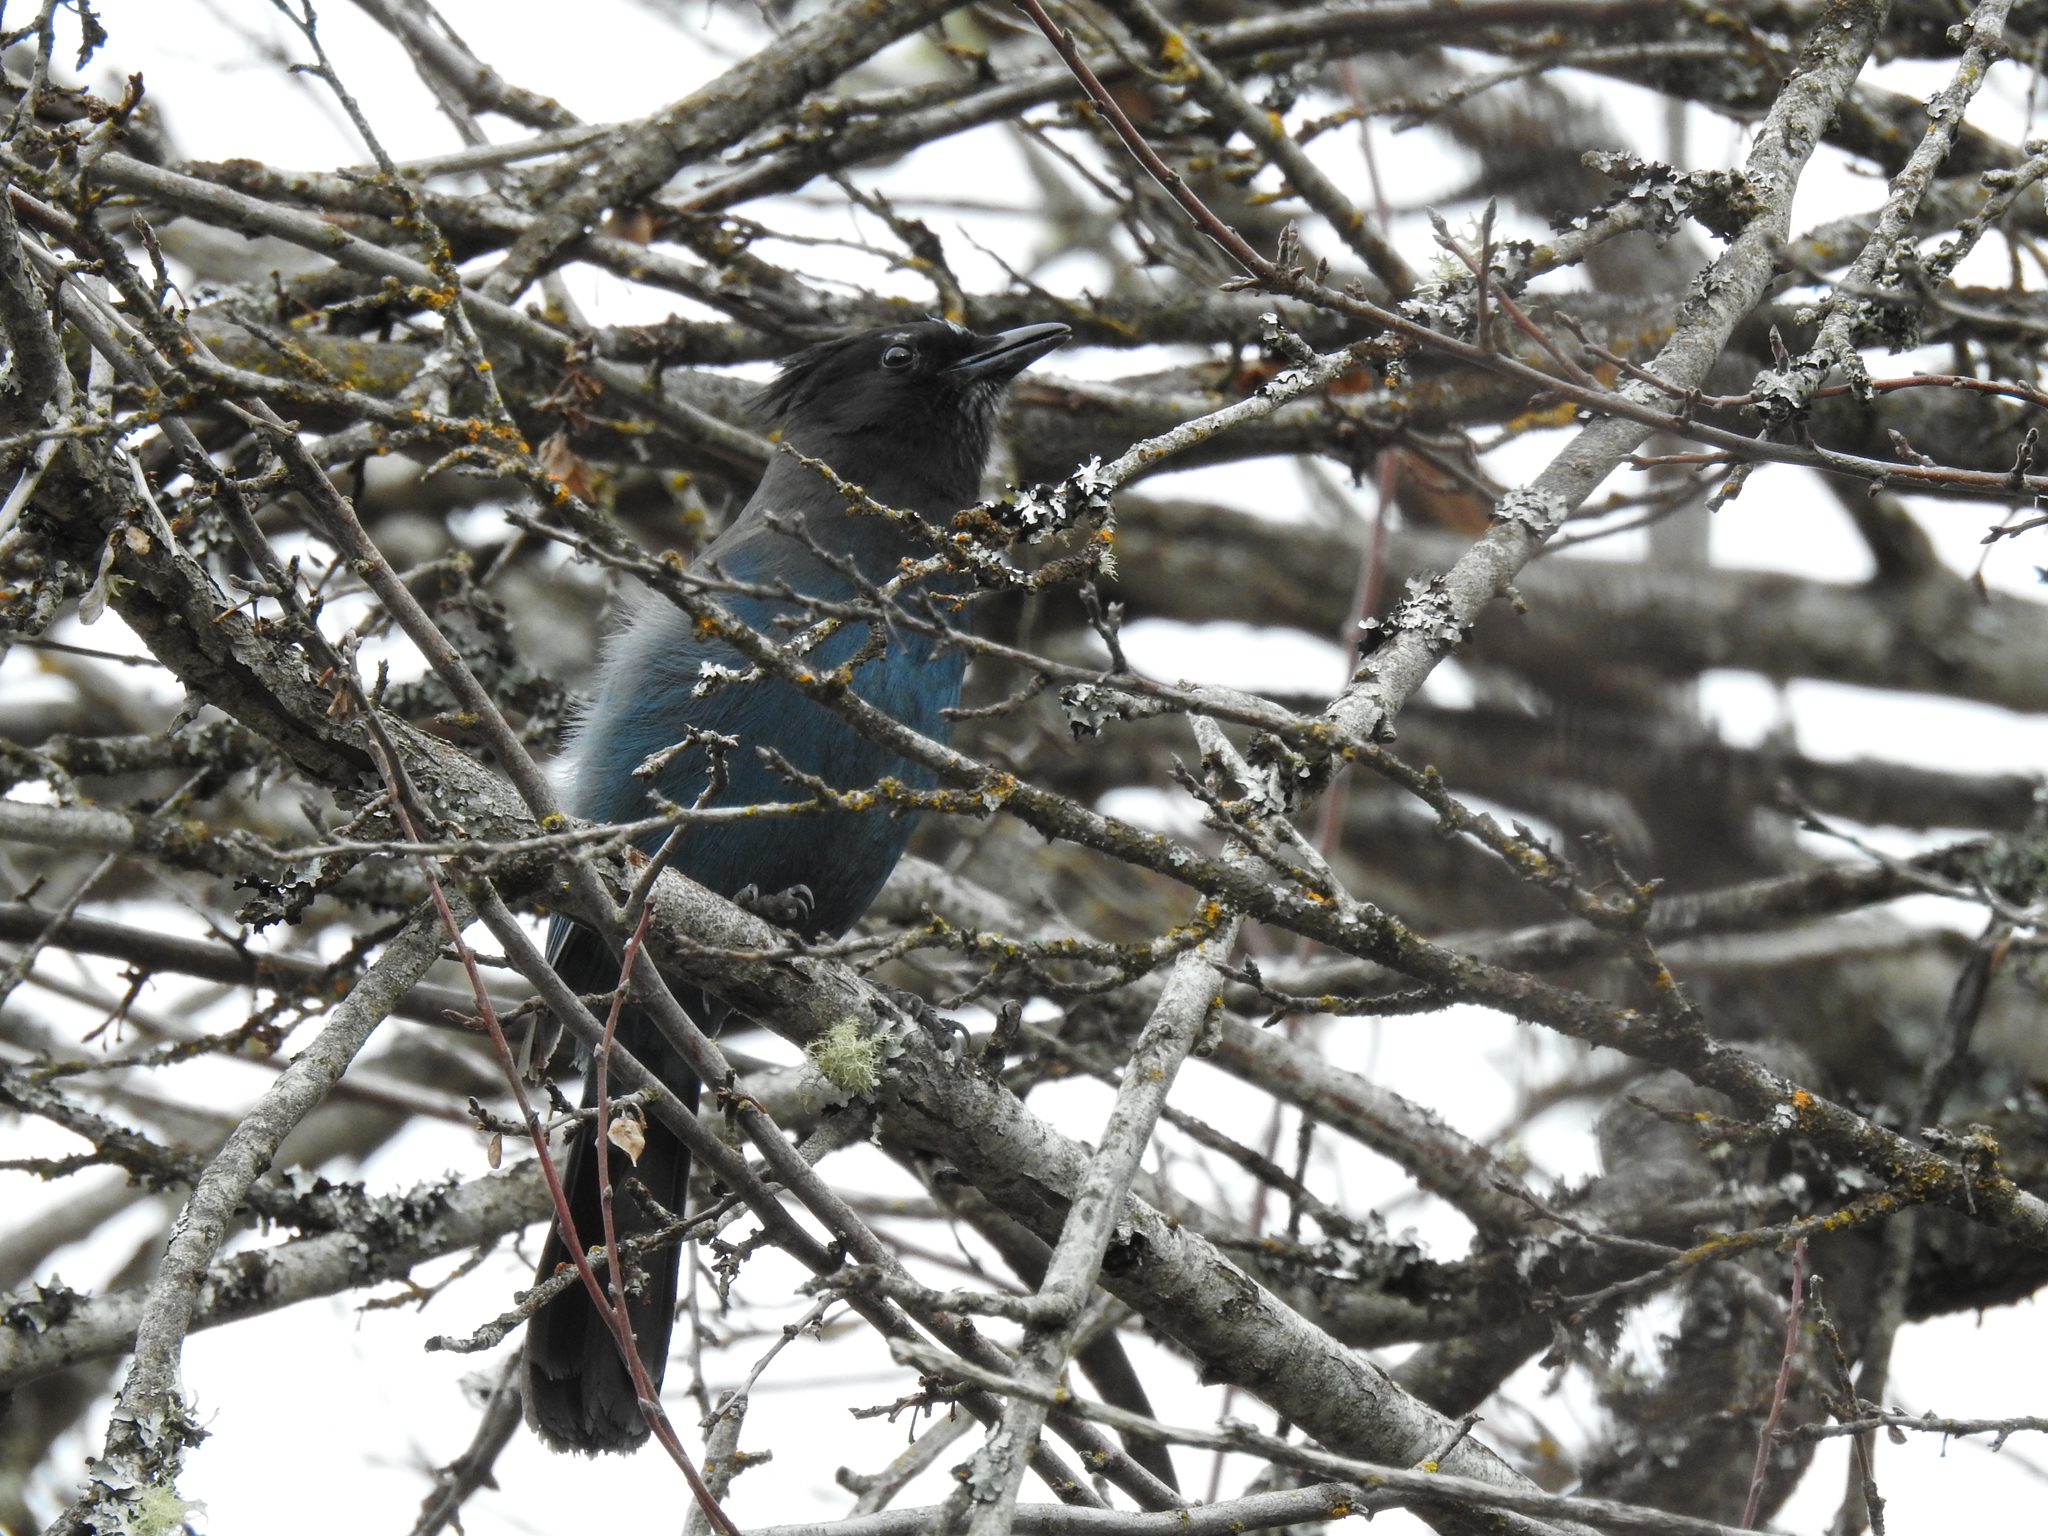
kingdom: Animalia
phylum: Chordata
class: Aves
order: Passeriformes
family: Corvidae
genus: Cyanocitta
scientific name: Cyanocitta stelleri
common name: Steller's jay
